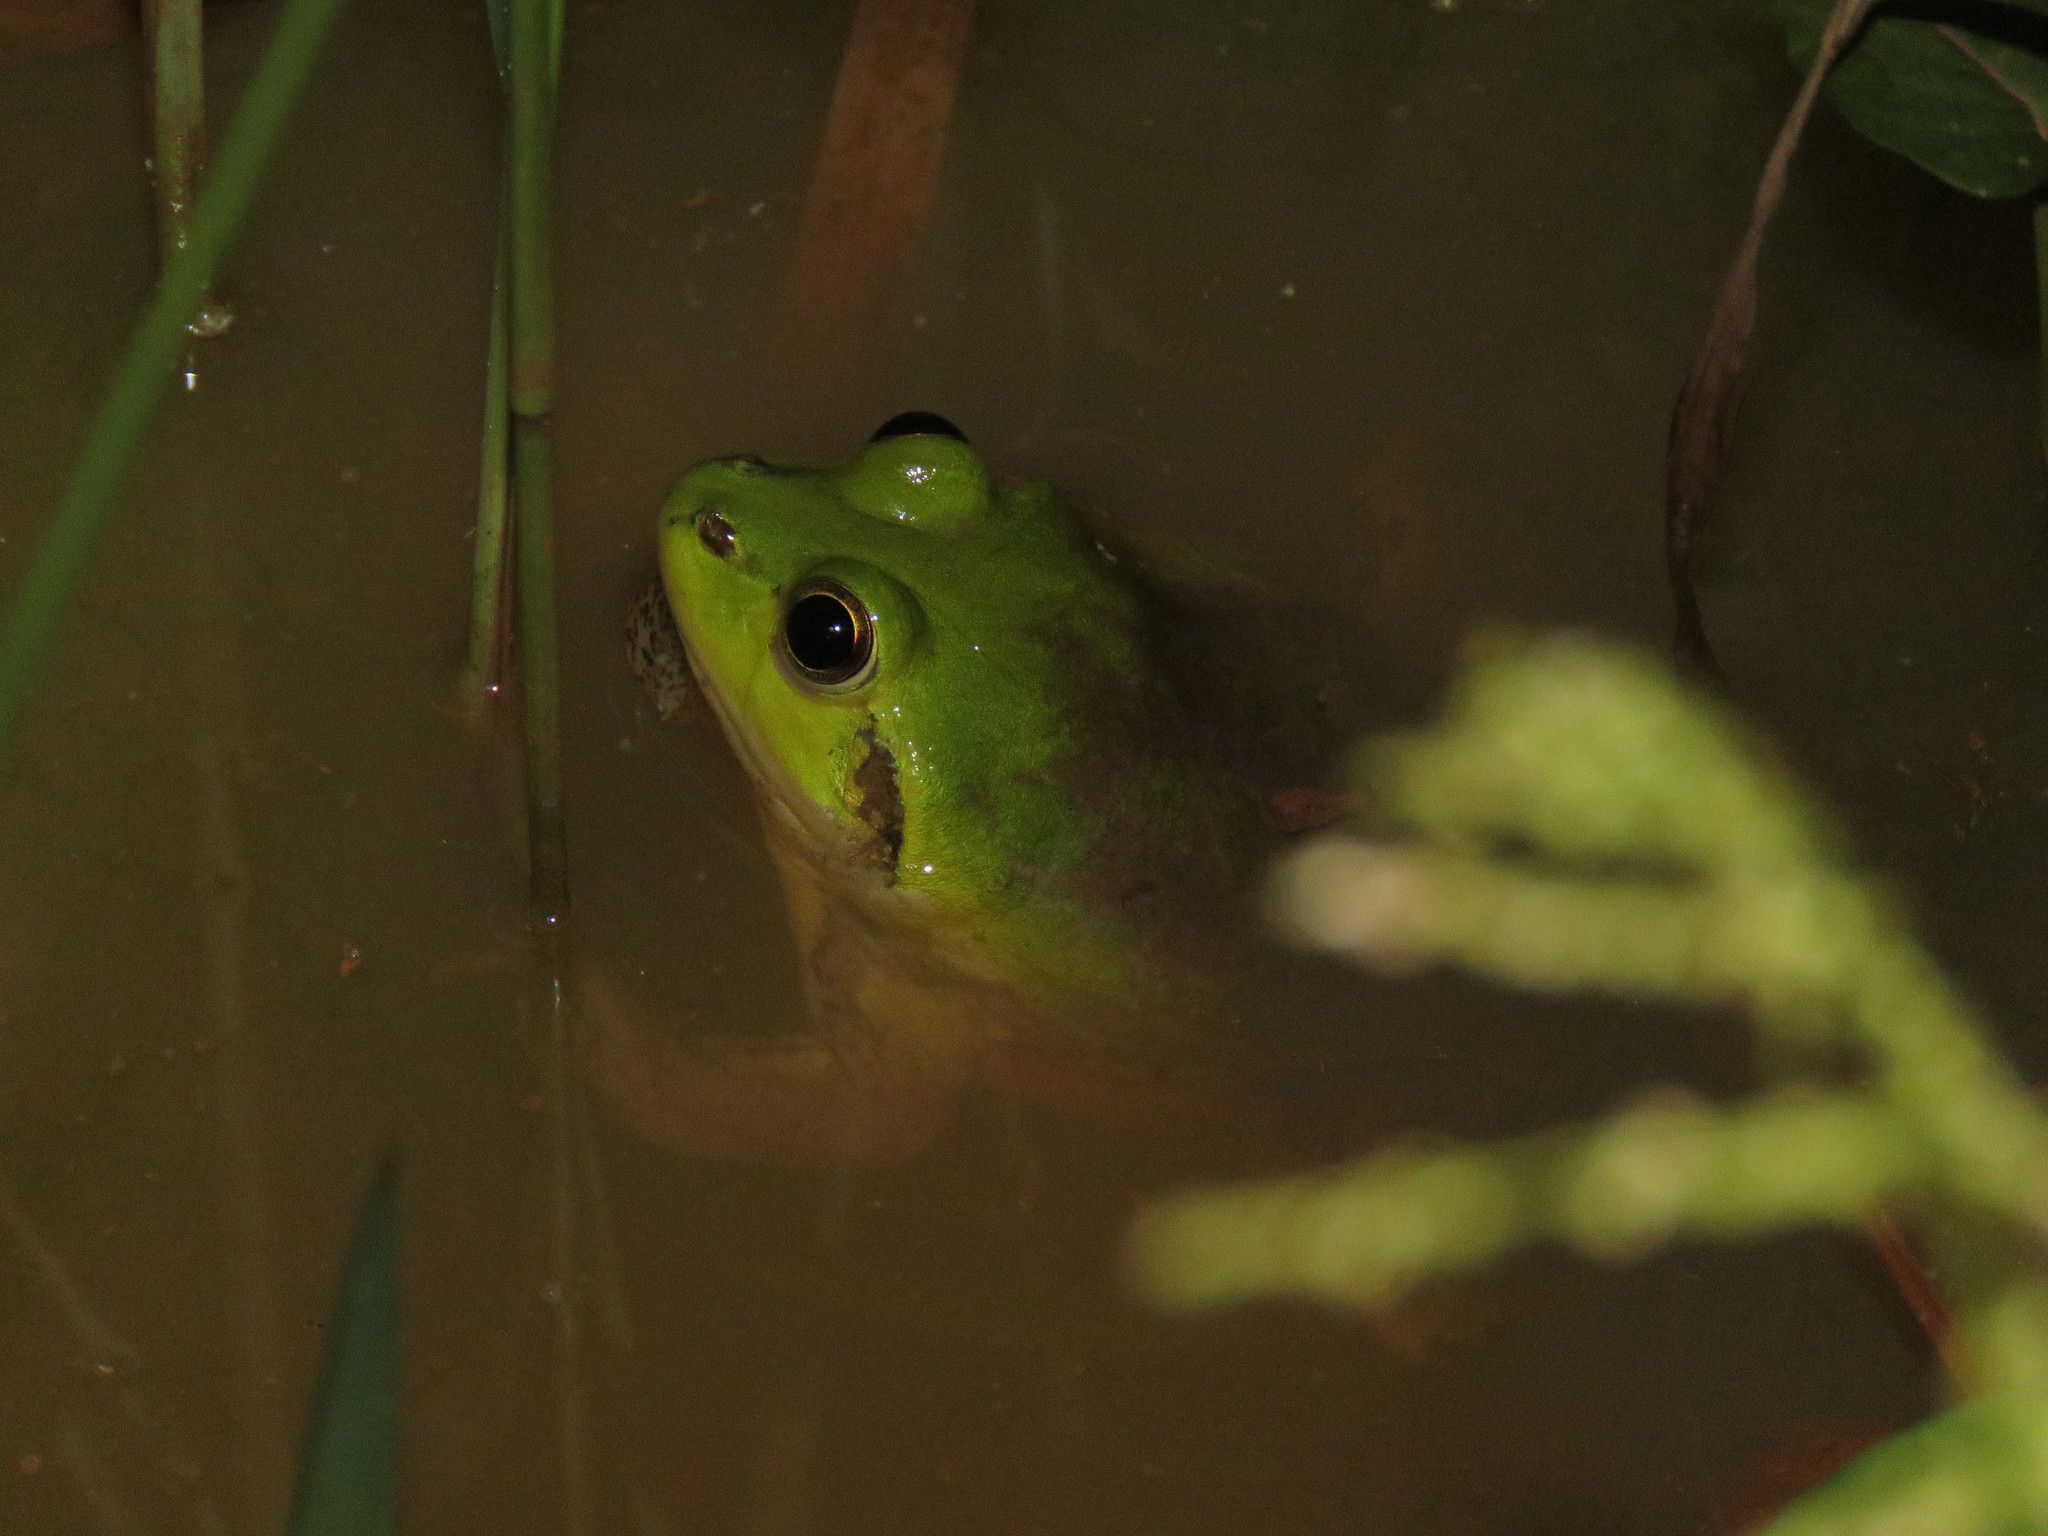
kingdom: Animalia
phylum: Chordata
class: Amphibia
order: Anura
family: Hylidae
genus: Pseudis
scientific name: Pseudis paradoxa
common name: Swimming frog
